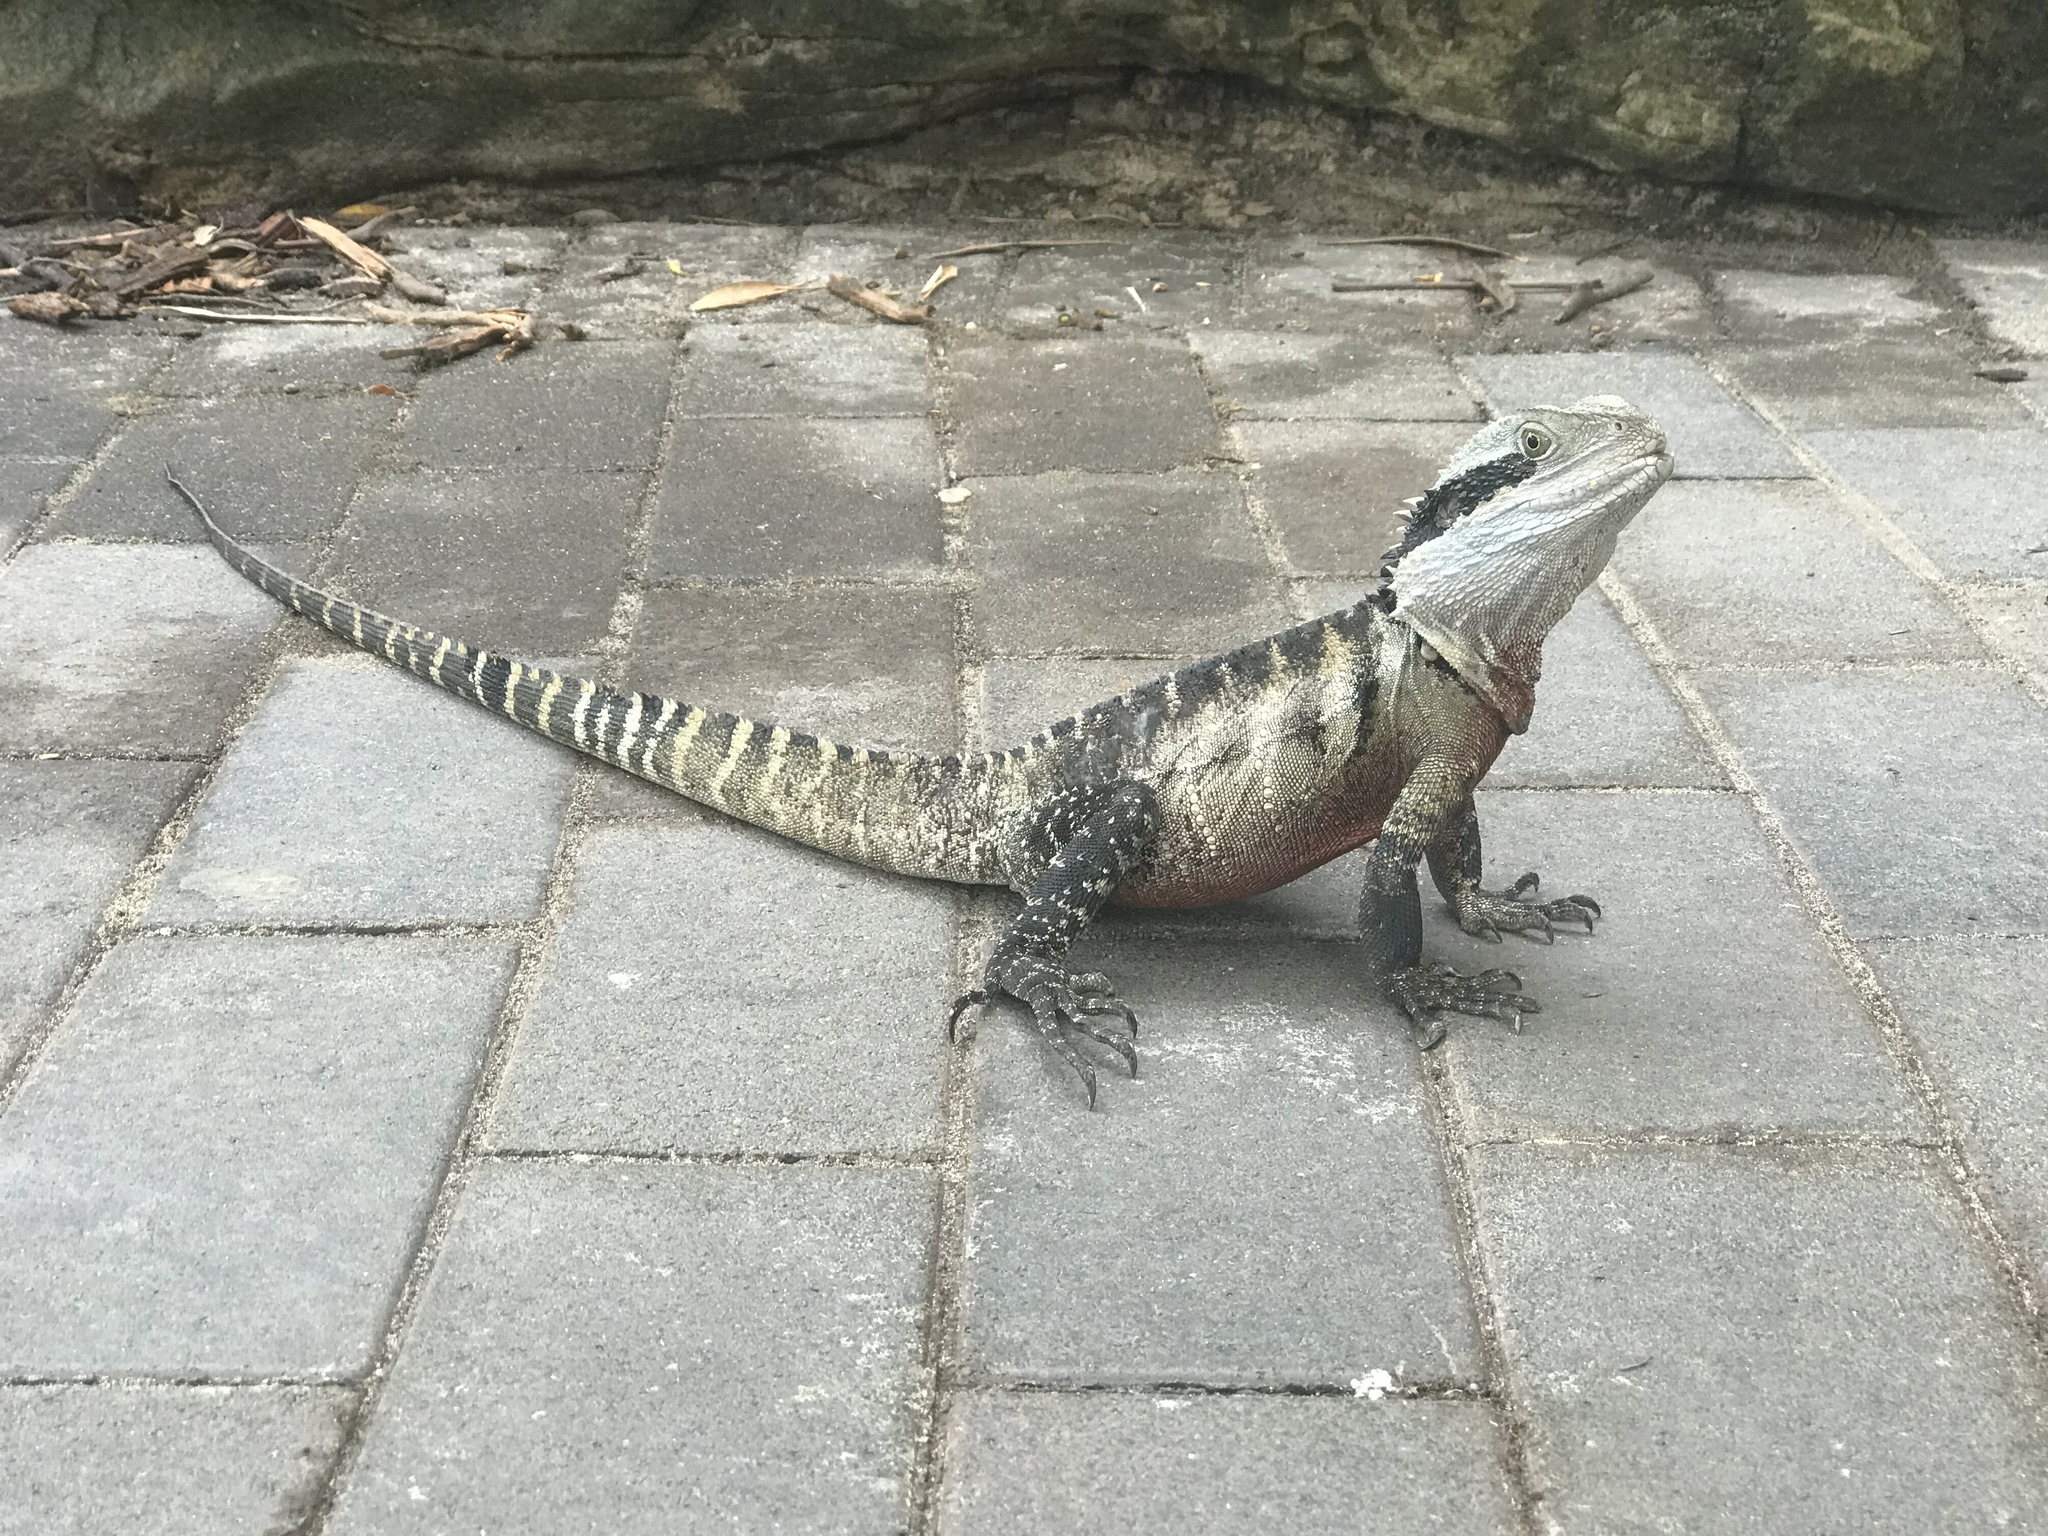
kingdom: Animalia
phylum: Chordata
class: Squamata
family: Agamidae
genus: Intellagama
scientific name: Intellagama lesueurii
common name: Eastern water dragon
